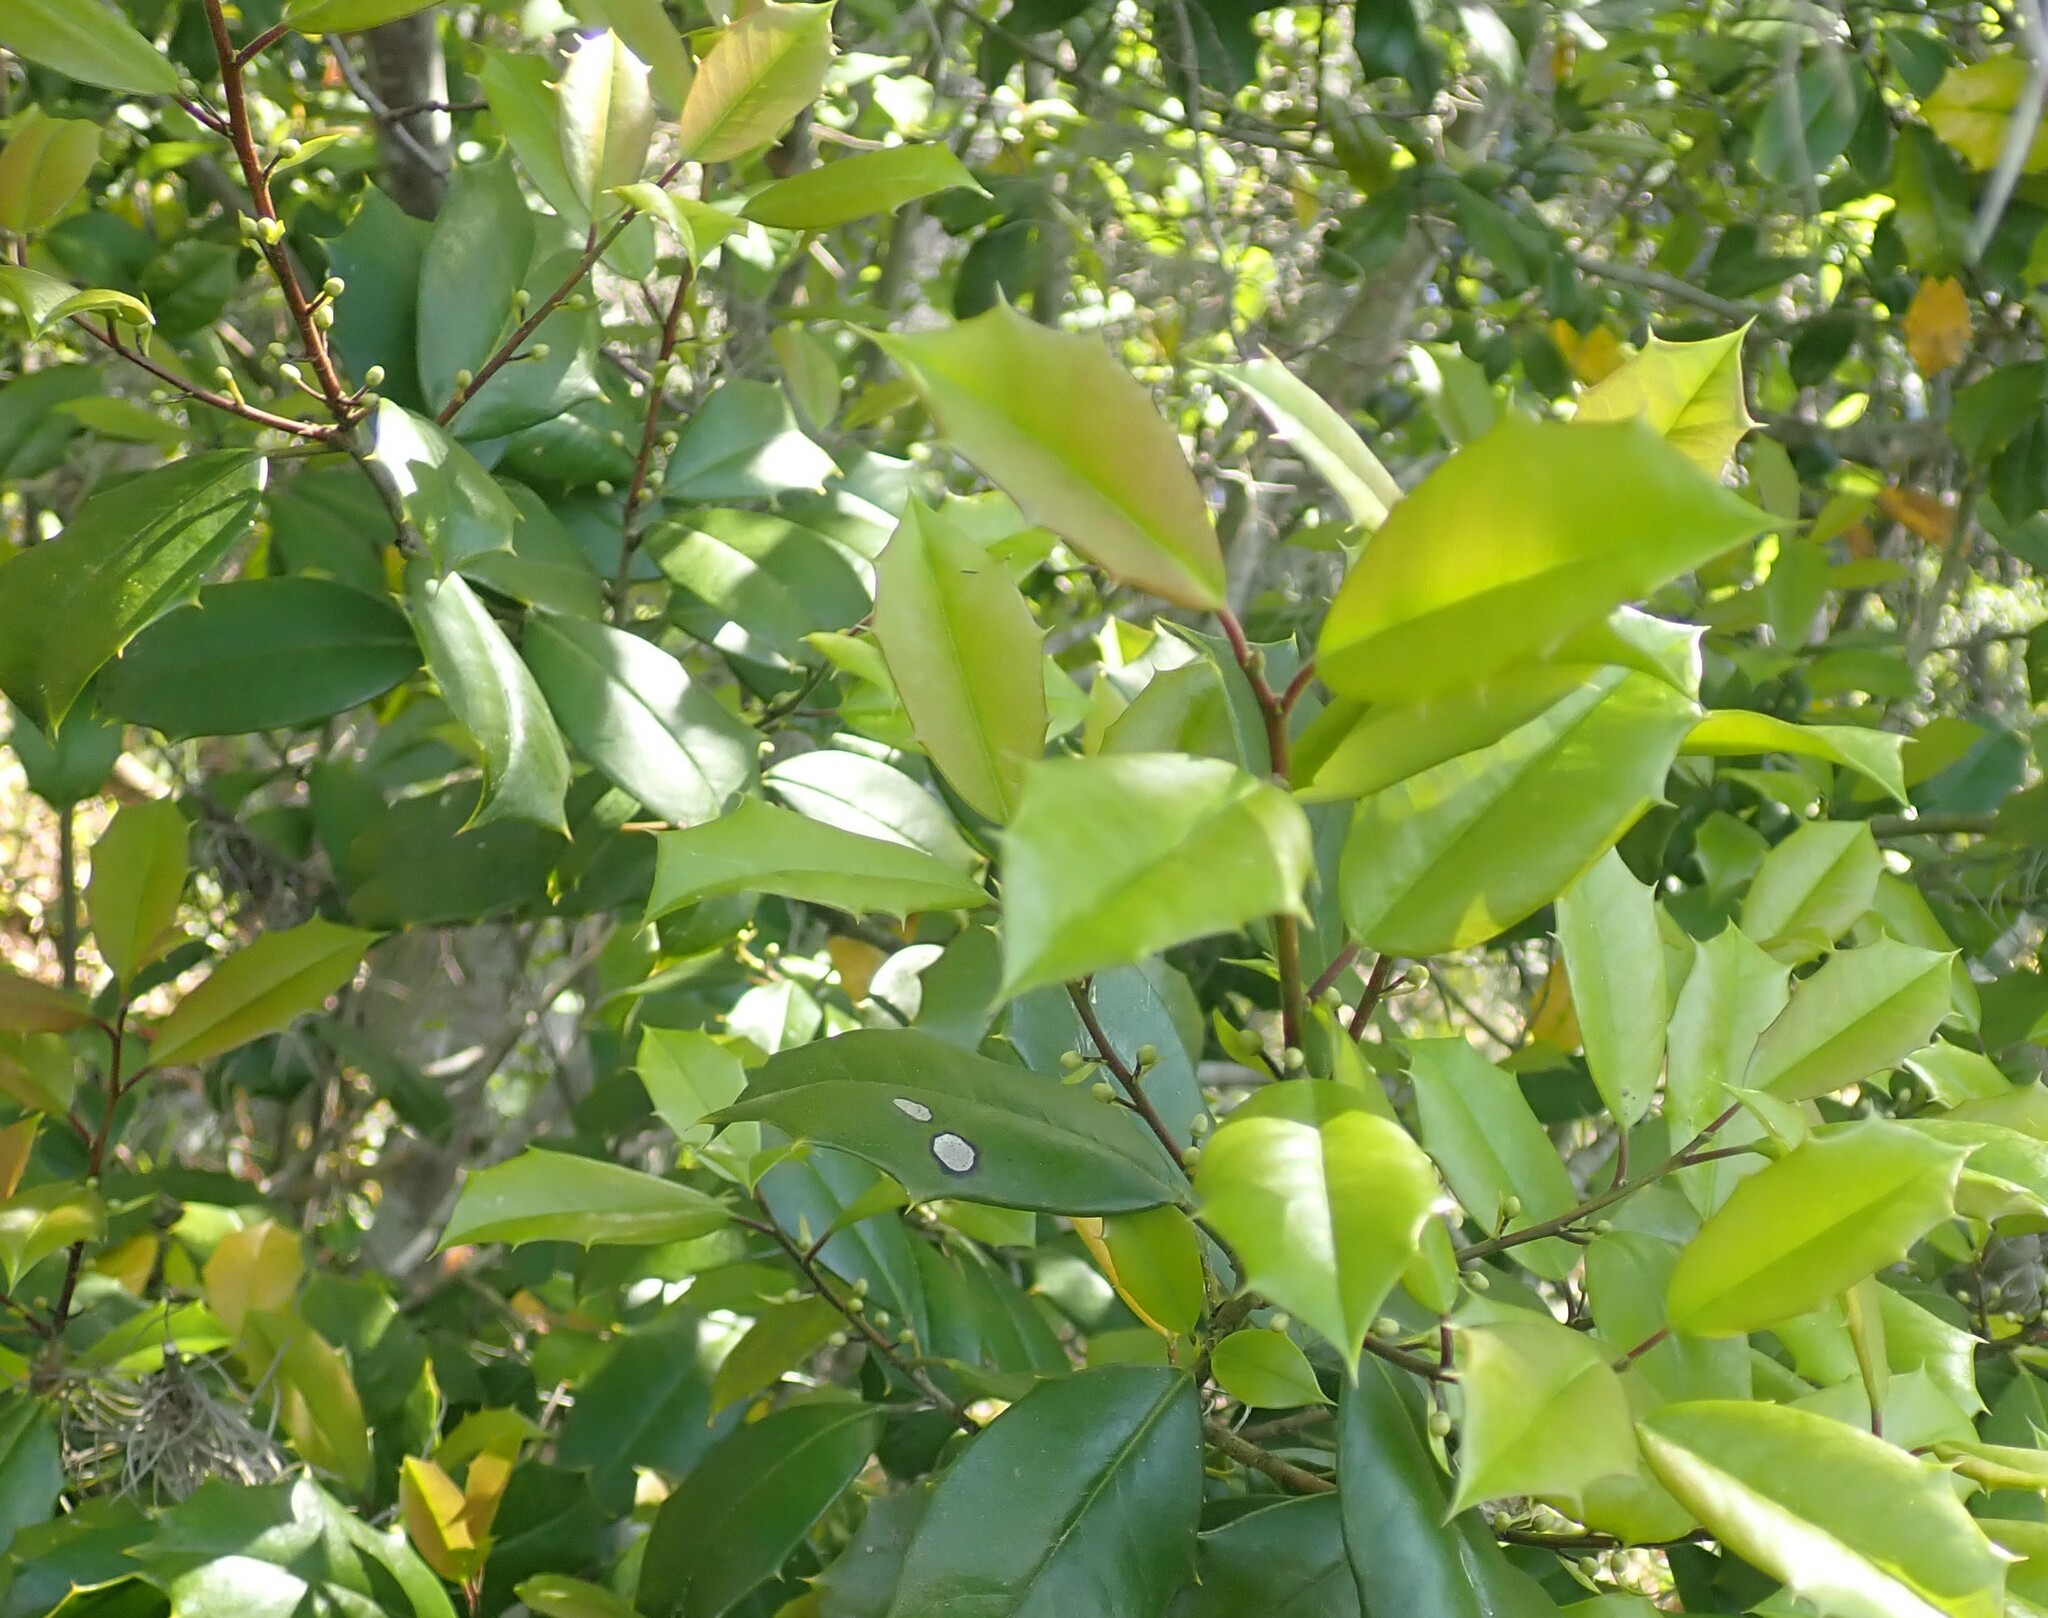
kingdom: Plantae
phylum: Tracheophyta
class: Magnoliopsida
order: Aquifoliales
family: Aquifoliaceae
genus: Ilex
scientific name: Ilex opaca
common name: American holly
